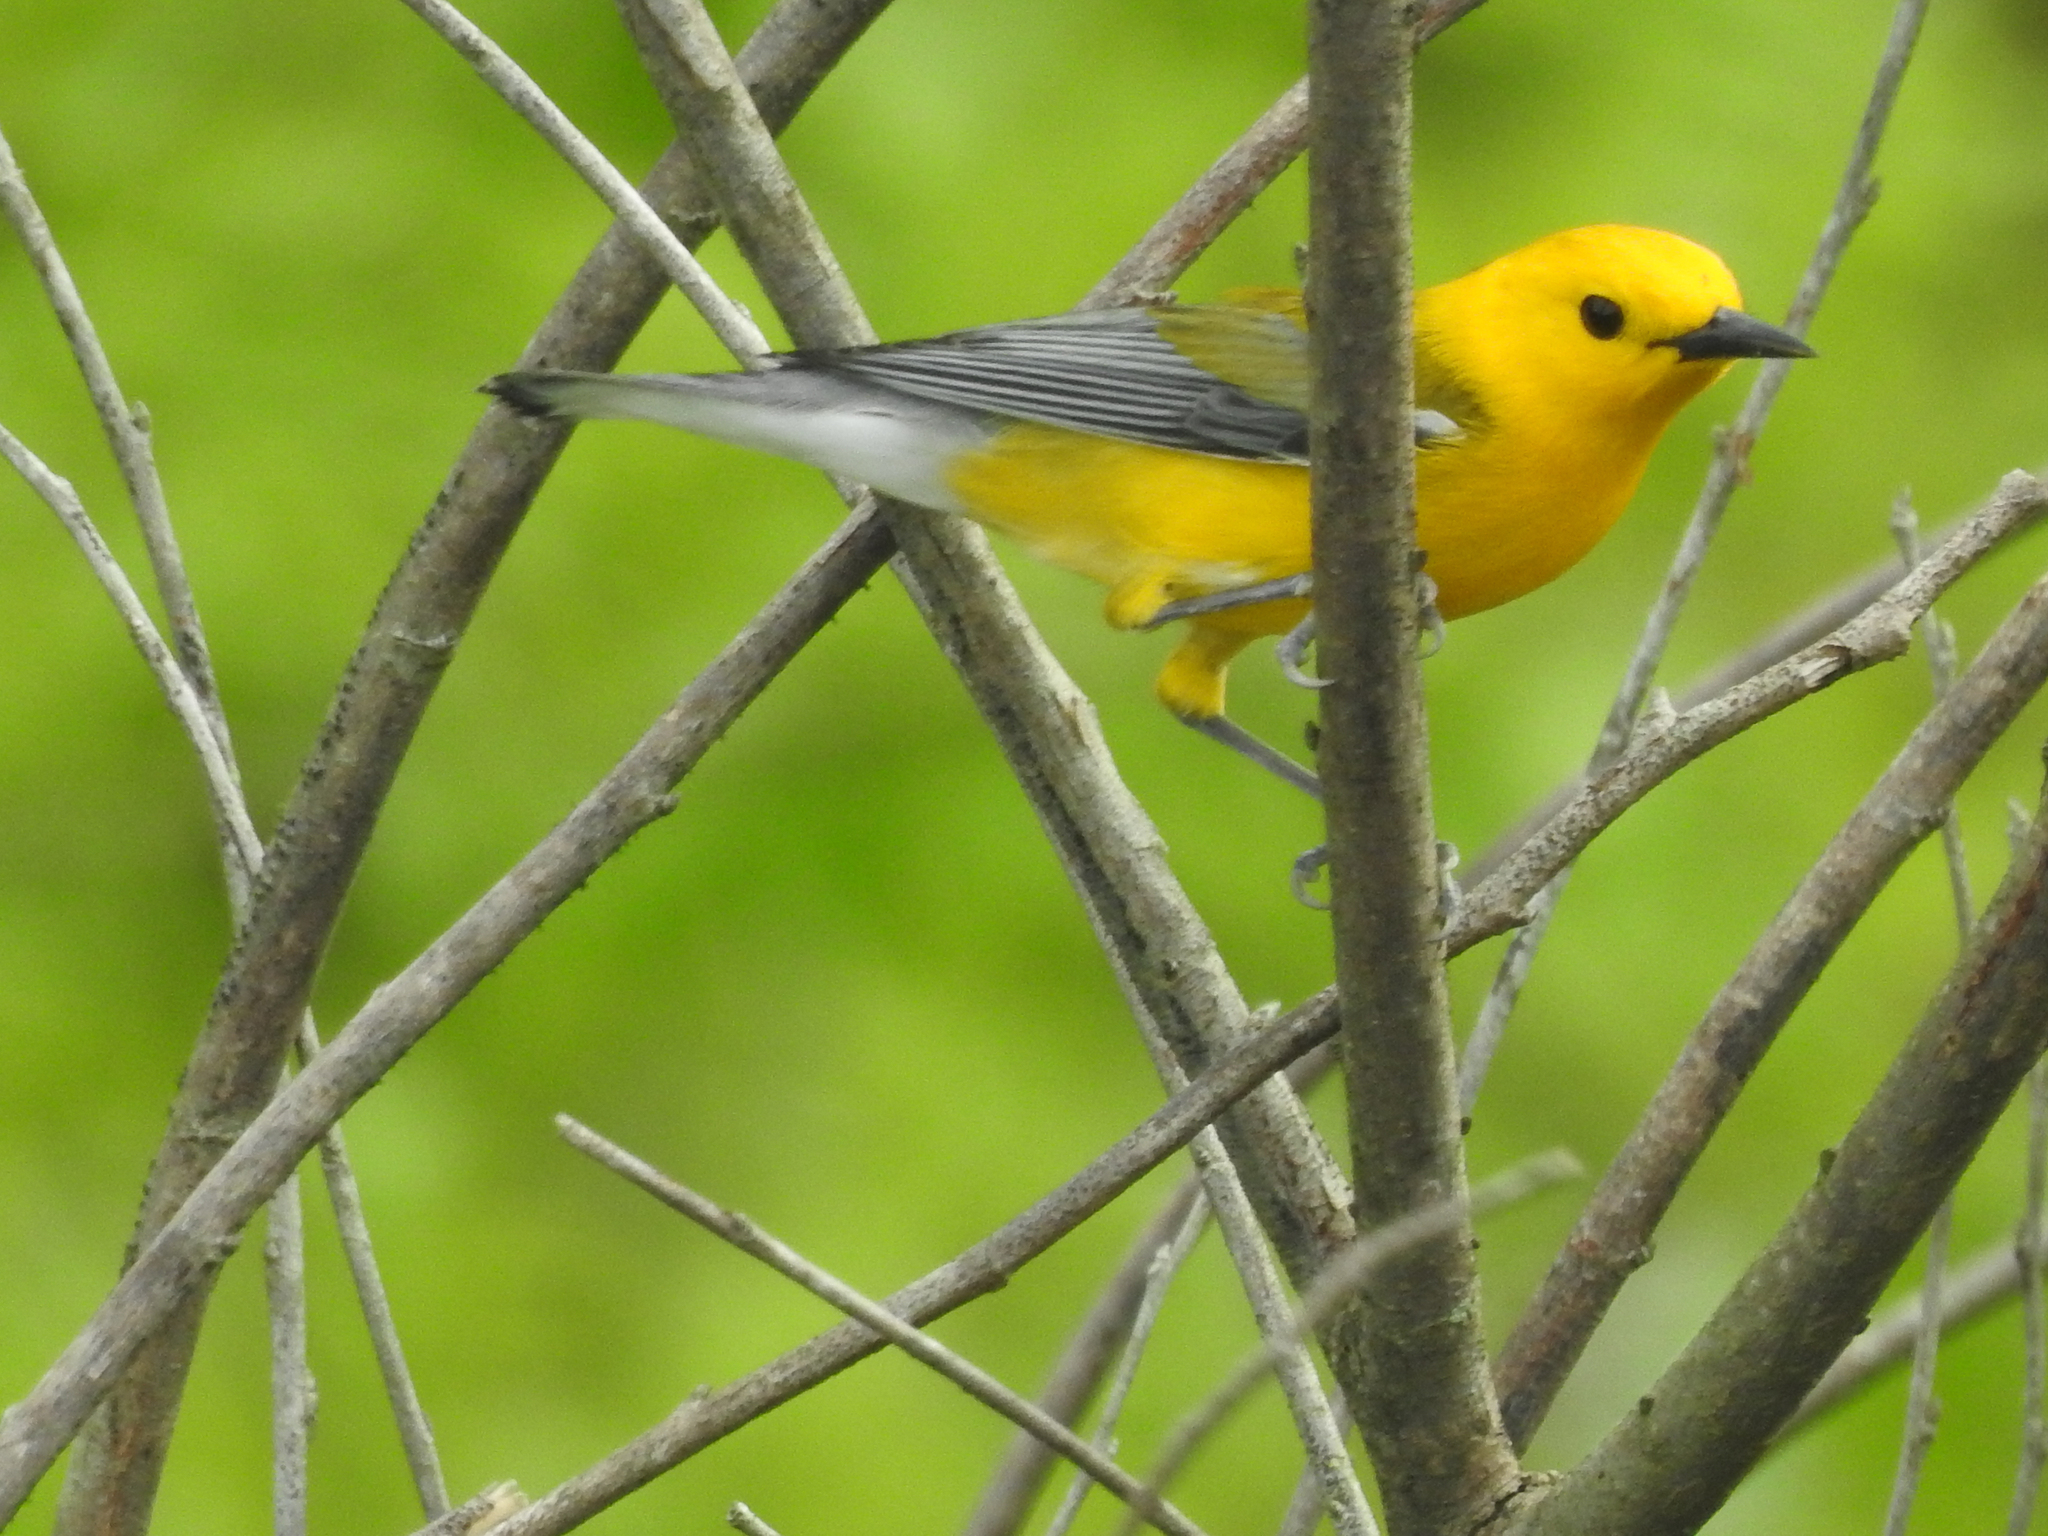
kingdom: Animalia
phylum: Chordata
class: Aves
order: Passeriformes
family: Parulidae
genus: Protonotaria
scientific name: Protonotaria citrea
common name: Prothonotary warbler
